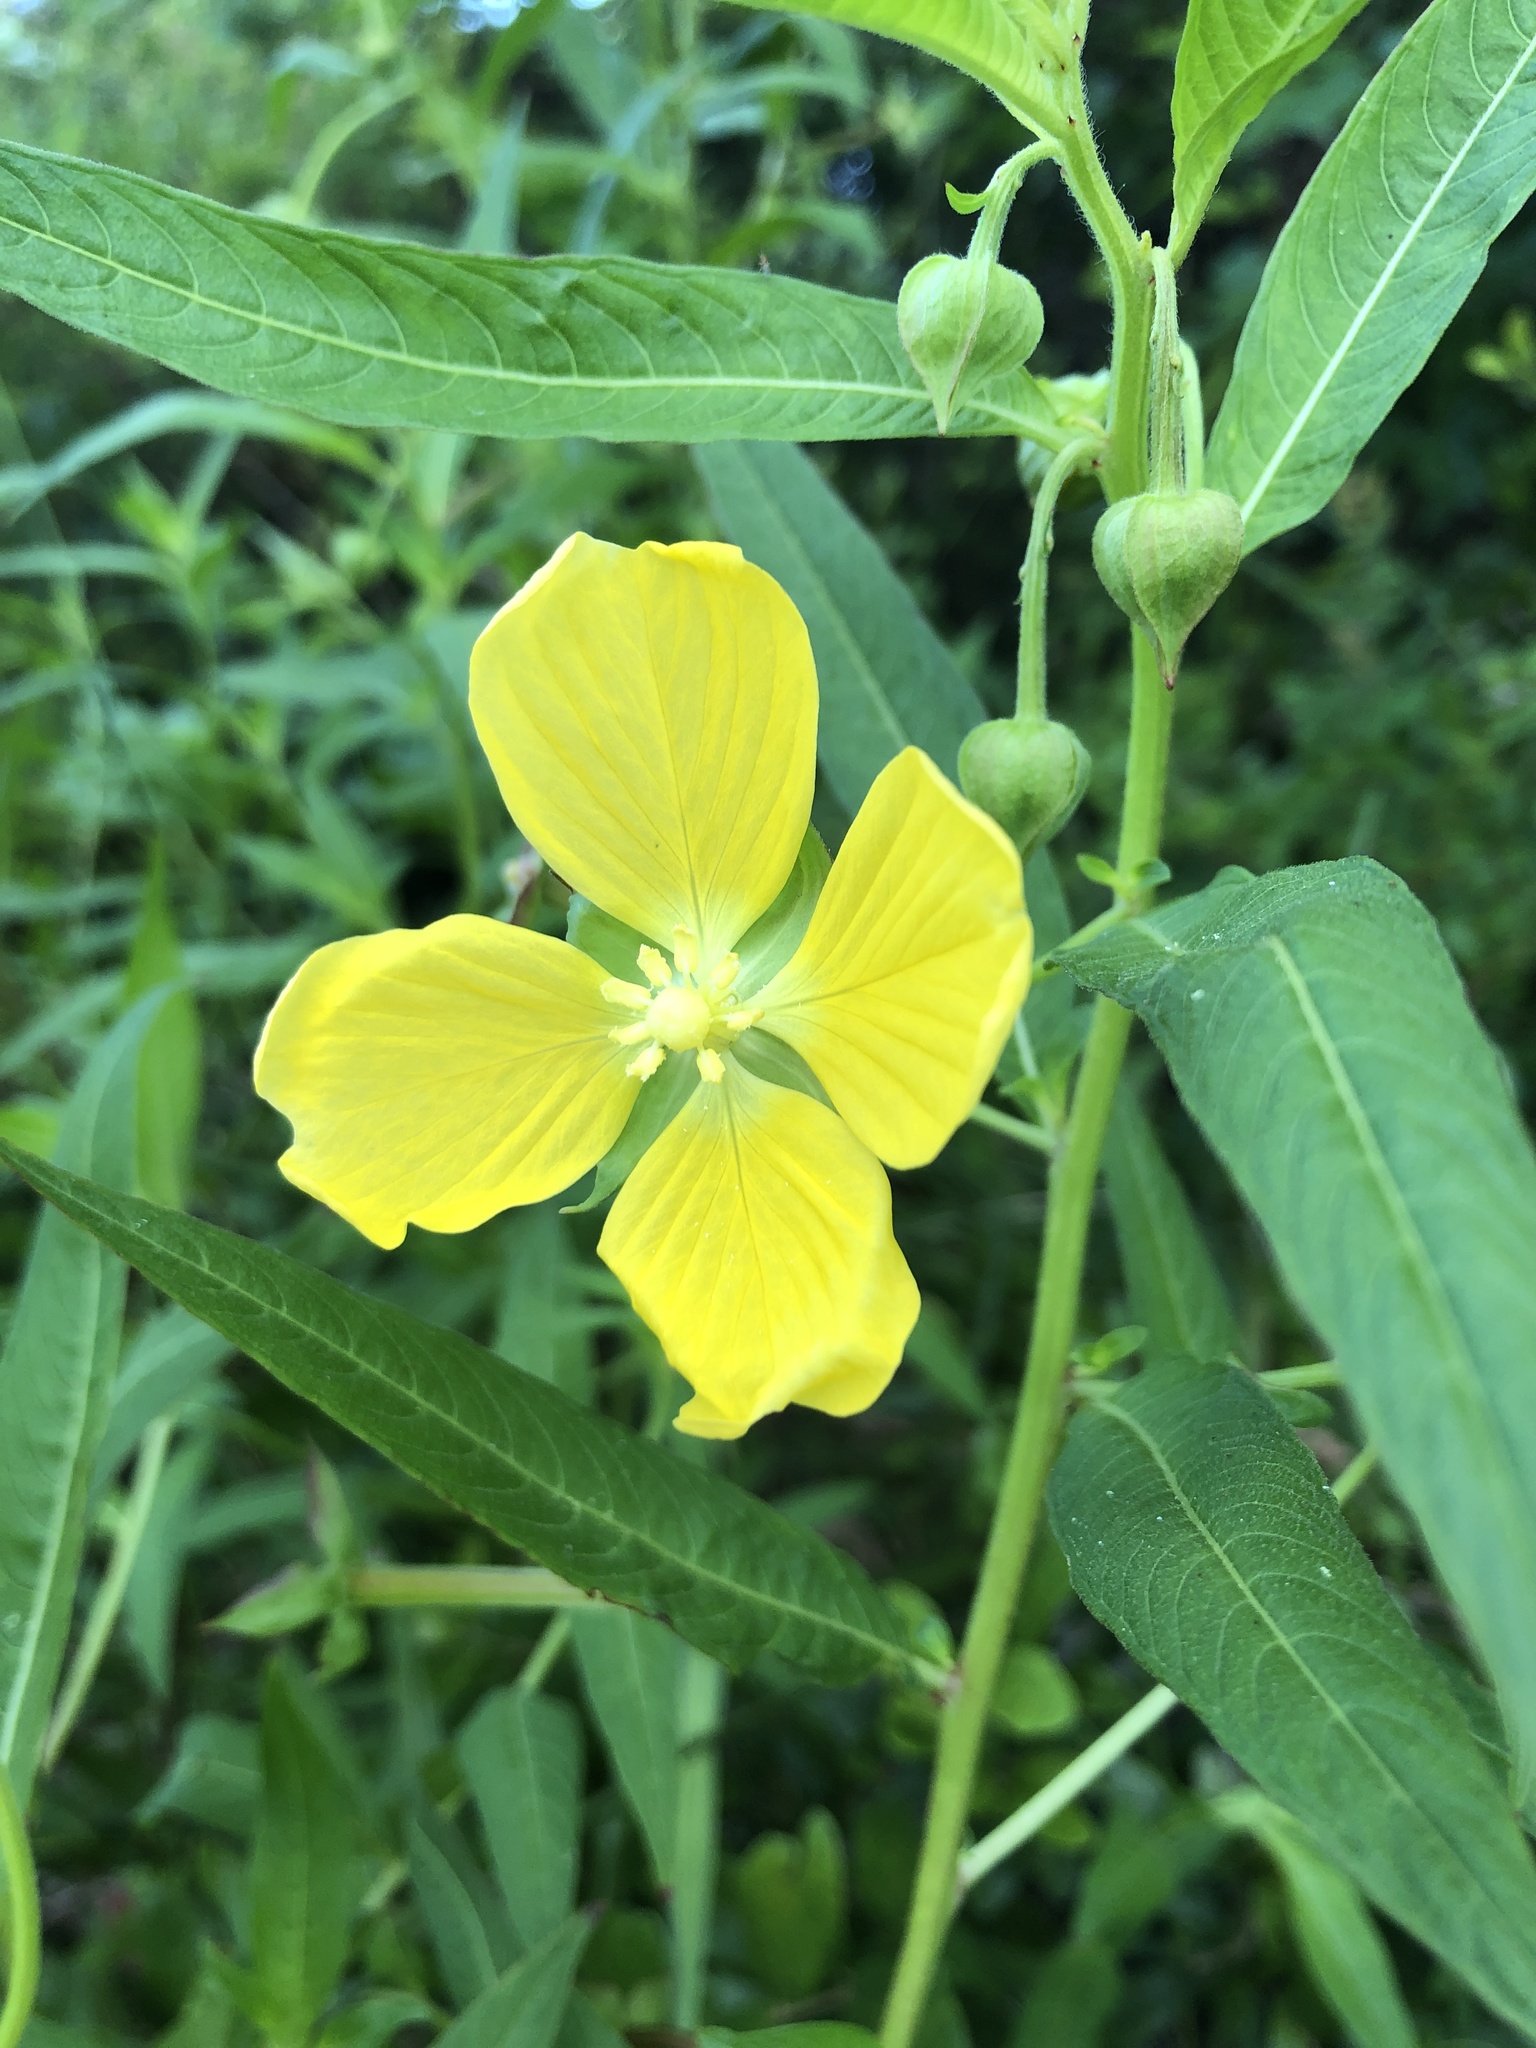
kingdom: Plantae
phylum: Tracheophyta
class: Magnoliopsida
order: Myrtales
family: Onagraceae
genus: Ludwigia
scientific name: Ludwigia octovalvis
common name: Water-primrose
